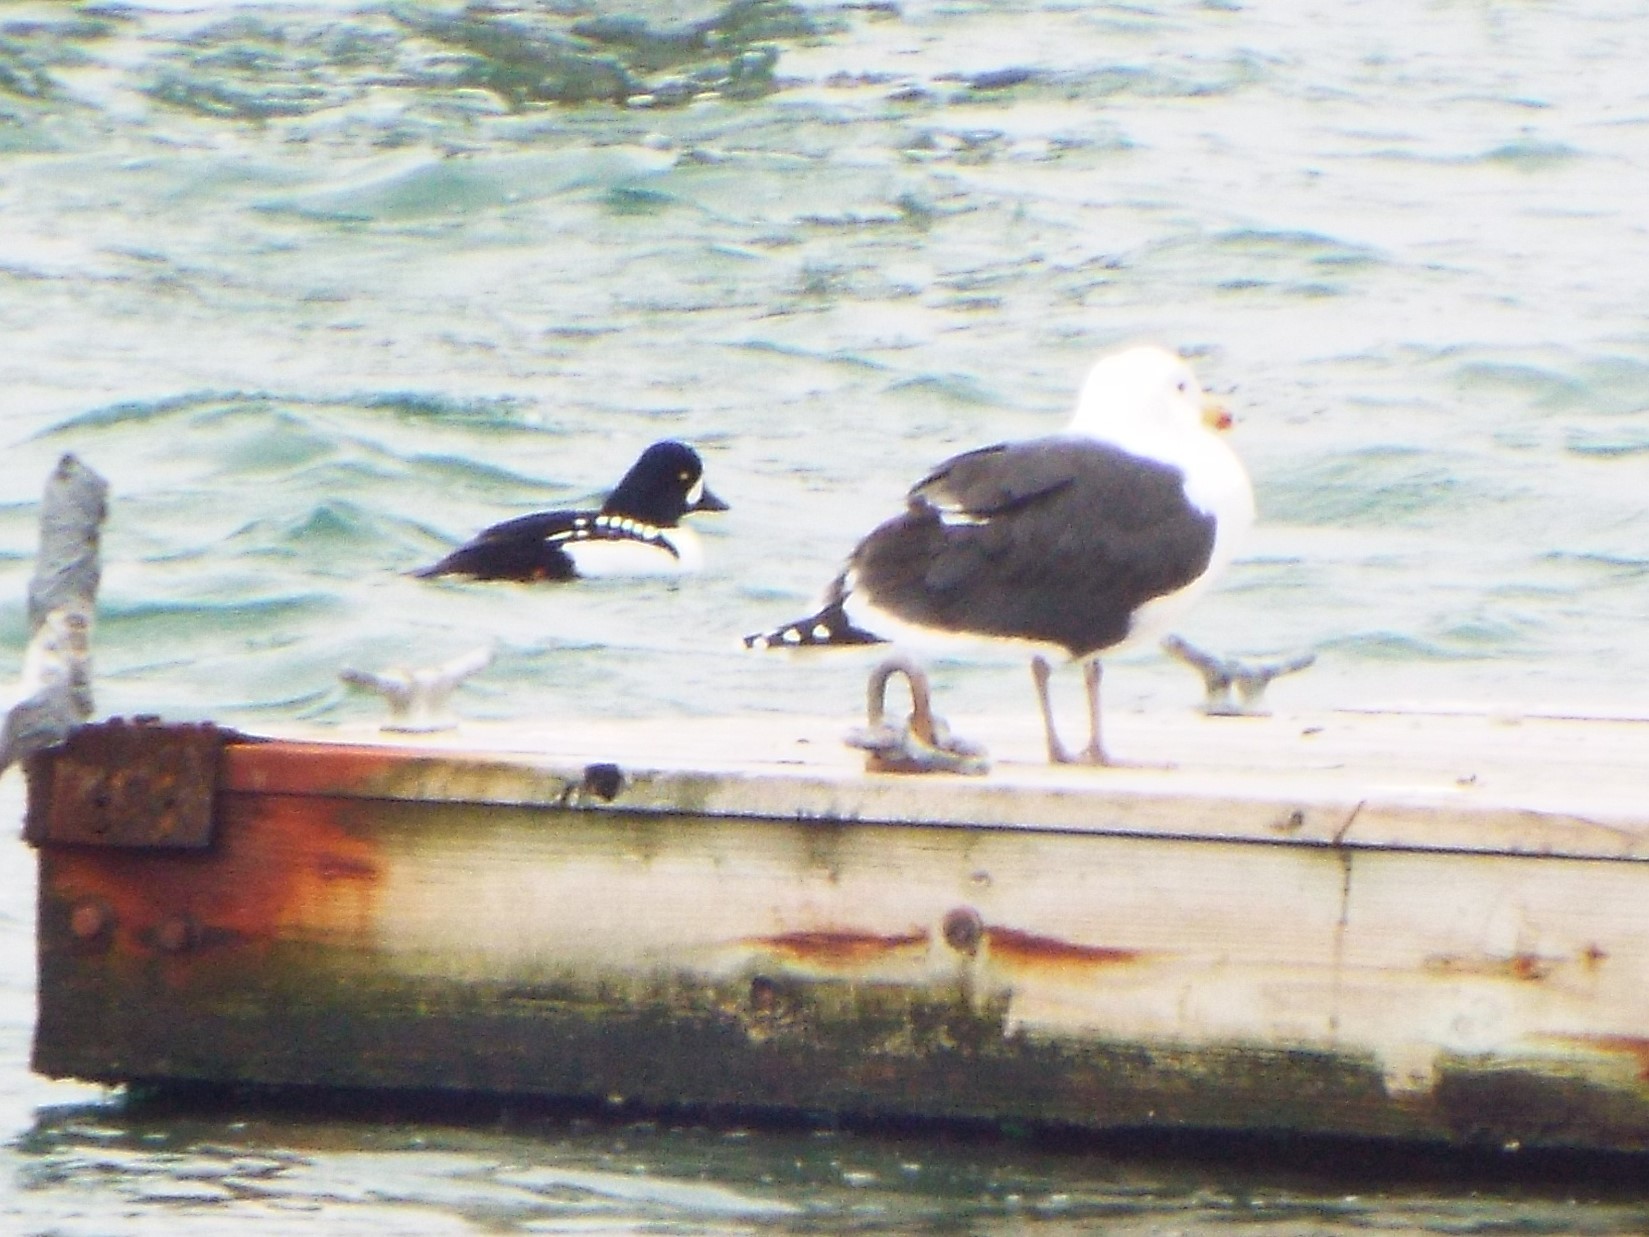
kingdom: Animalia
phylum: Chordata
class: Aves
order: Anseriformes
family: Anatidae
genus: Bucephala
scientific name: Bucephala islandica
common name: Barrow's goldeneye
